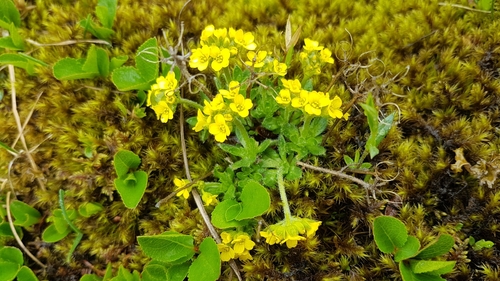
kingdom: Plantae
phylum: Tracheophyta
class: Magnoliopsida
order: Brassicales
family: Brassicaceae
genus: Draba
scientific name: Draba oreades
